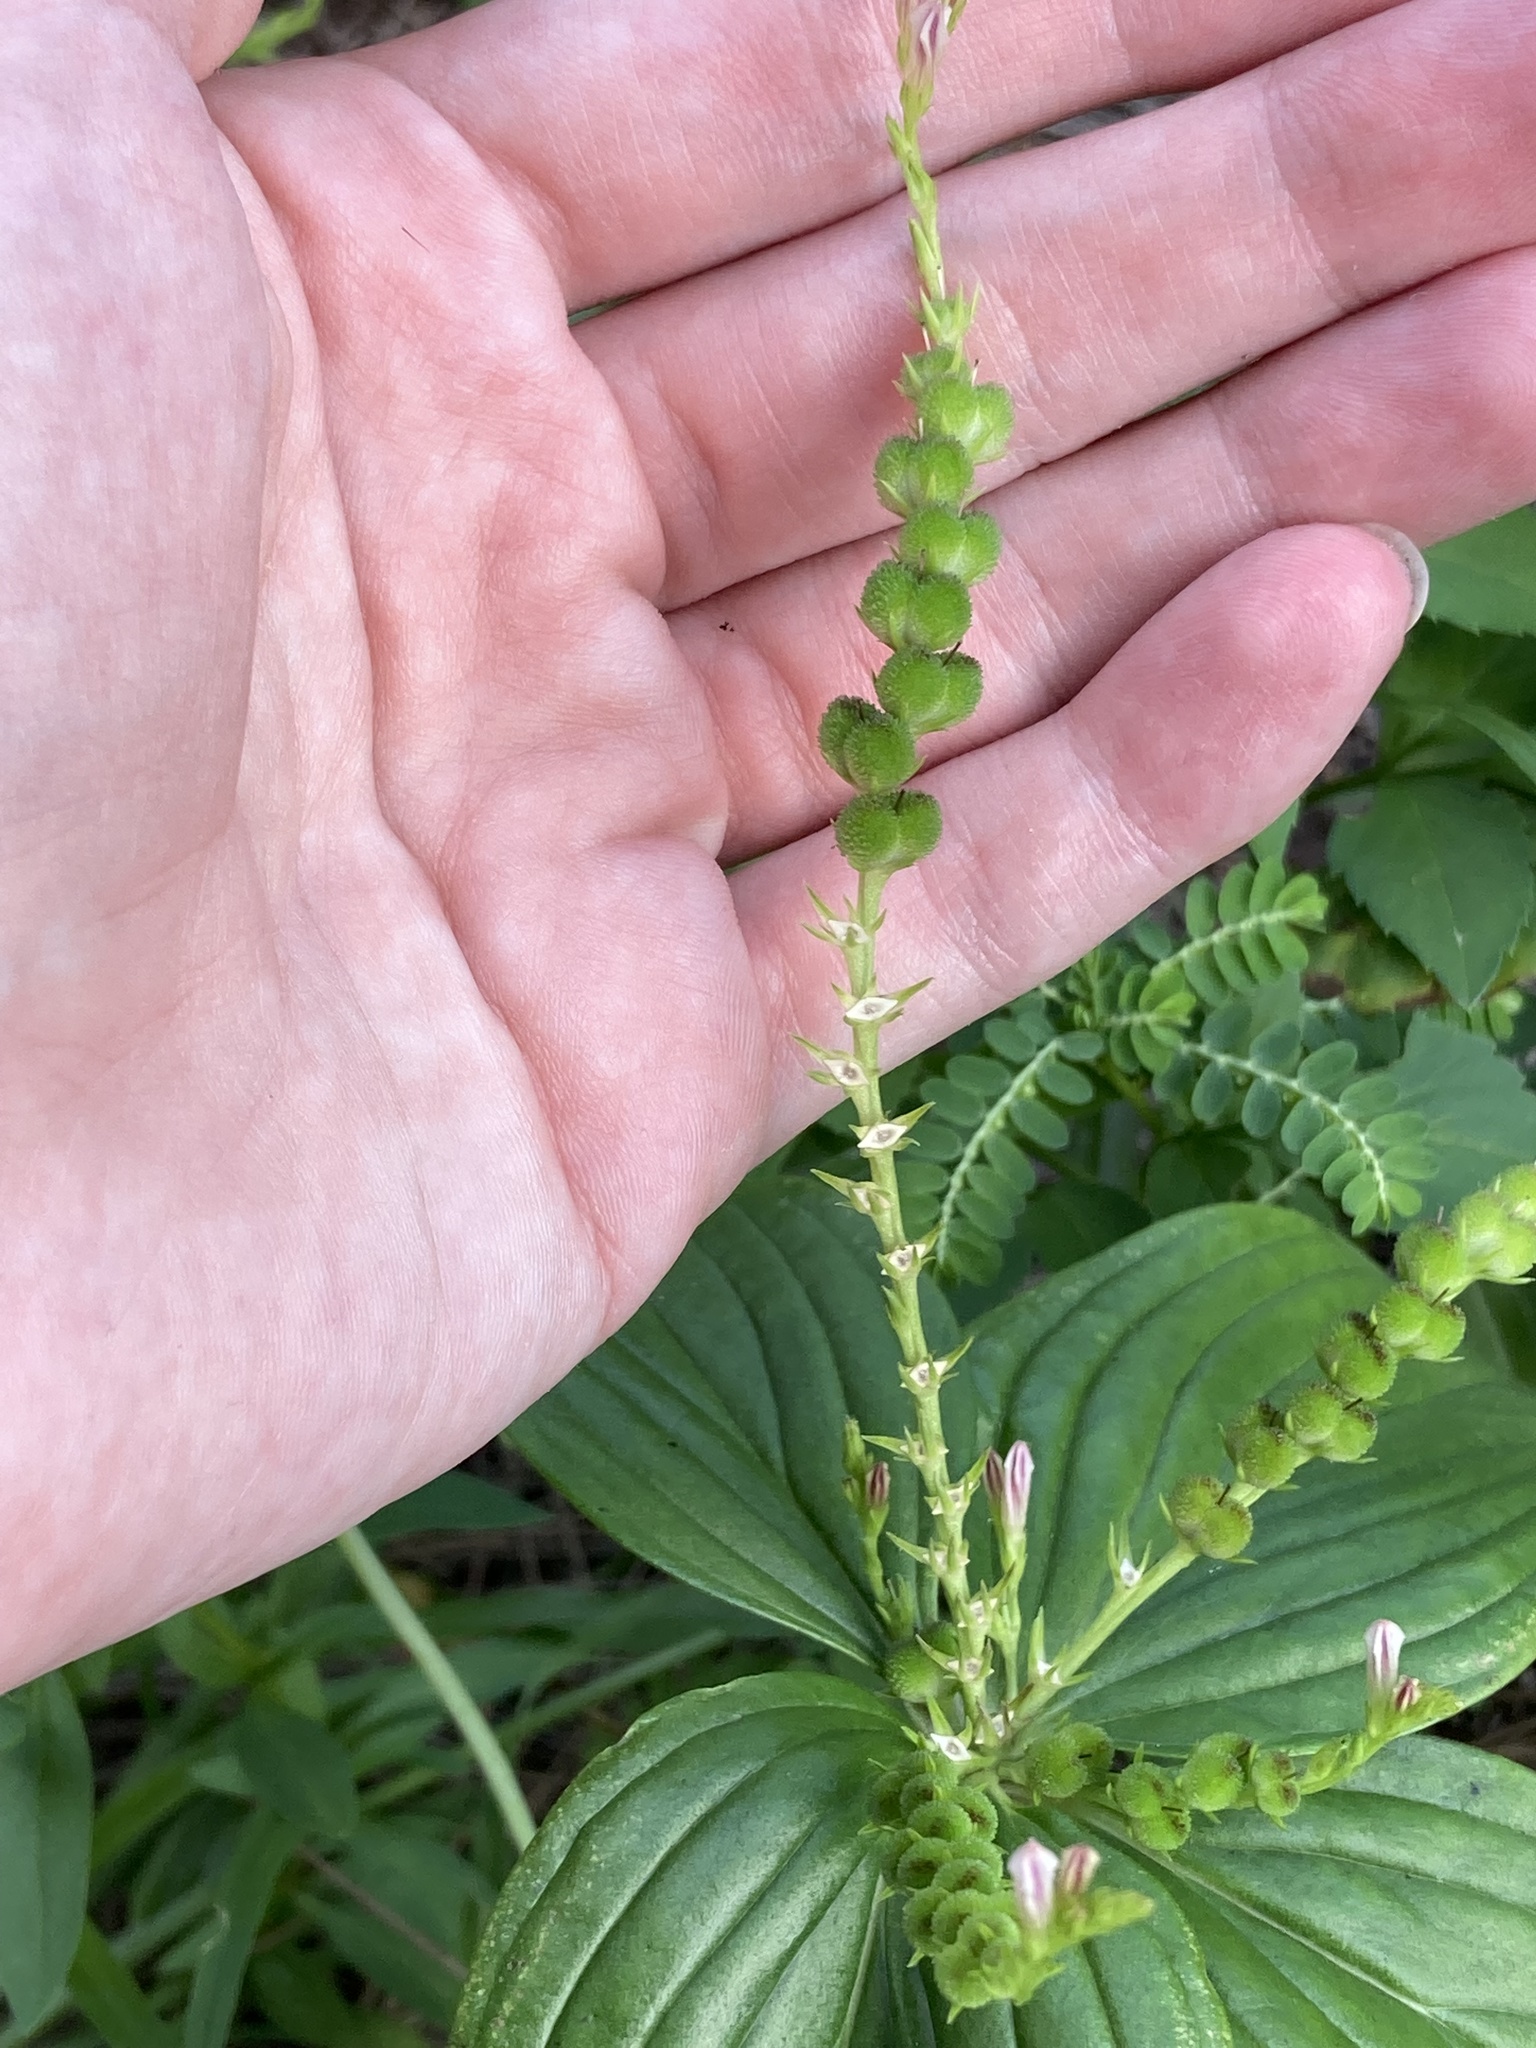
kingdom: Plantae
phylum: Tracheophyta
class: Magnoliopsida
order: Gentianales
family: Loganiaceae
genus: Spigelia
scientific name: Spigelia anthelmia
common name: West indian-pink
